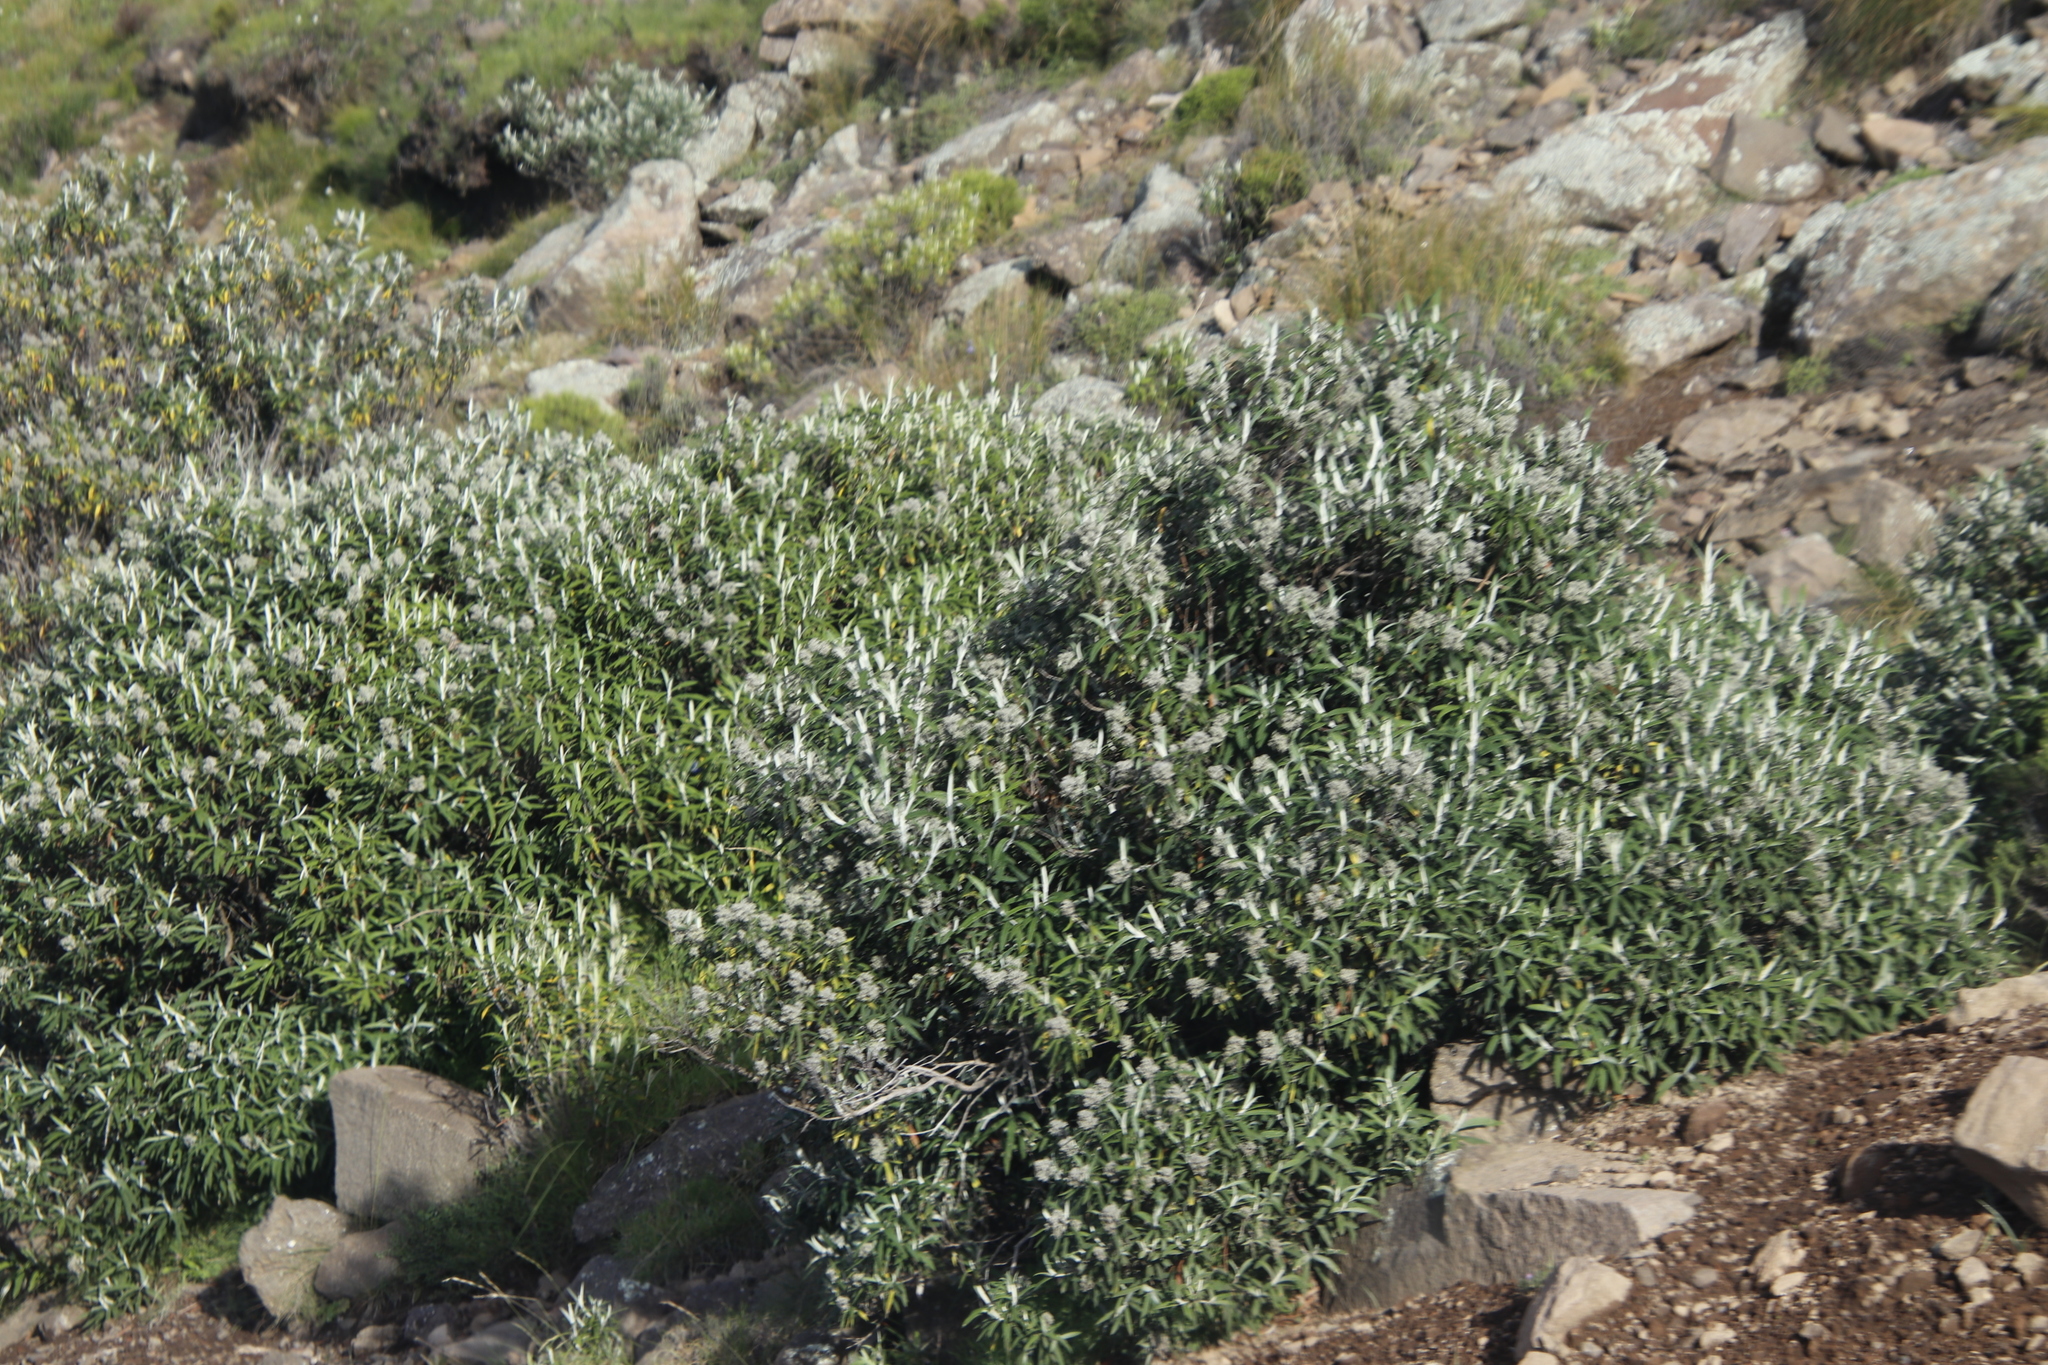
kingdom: Plantae
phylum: Tracheophyta
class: Magnoliopsida
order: Lamiales
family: Scrophulariaceae
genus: Buddleja
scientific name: Buddleja loricata
